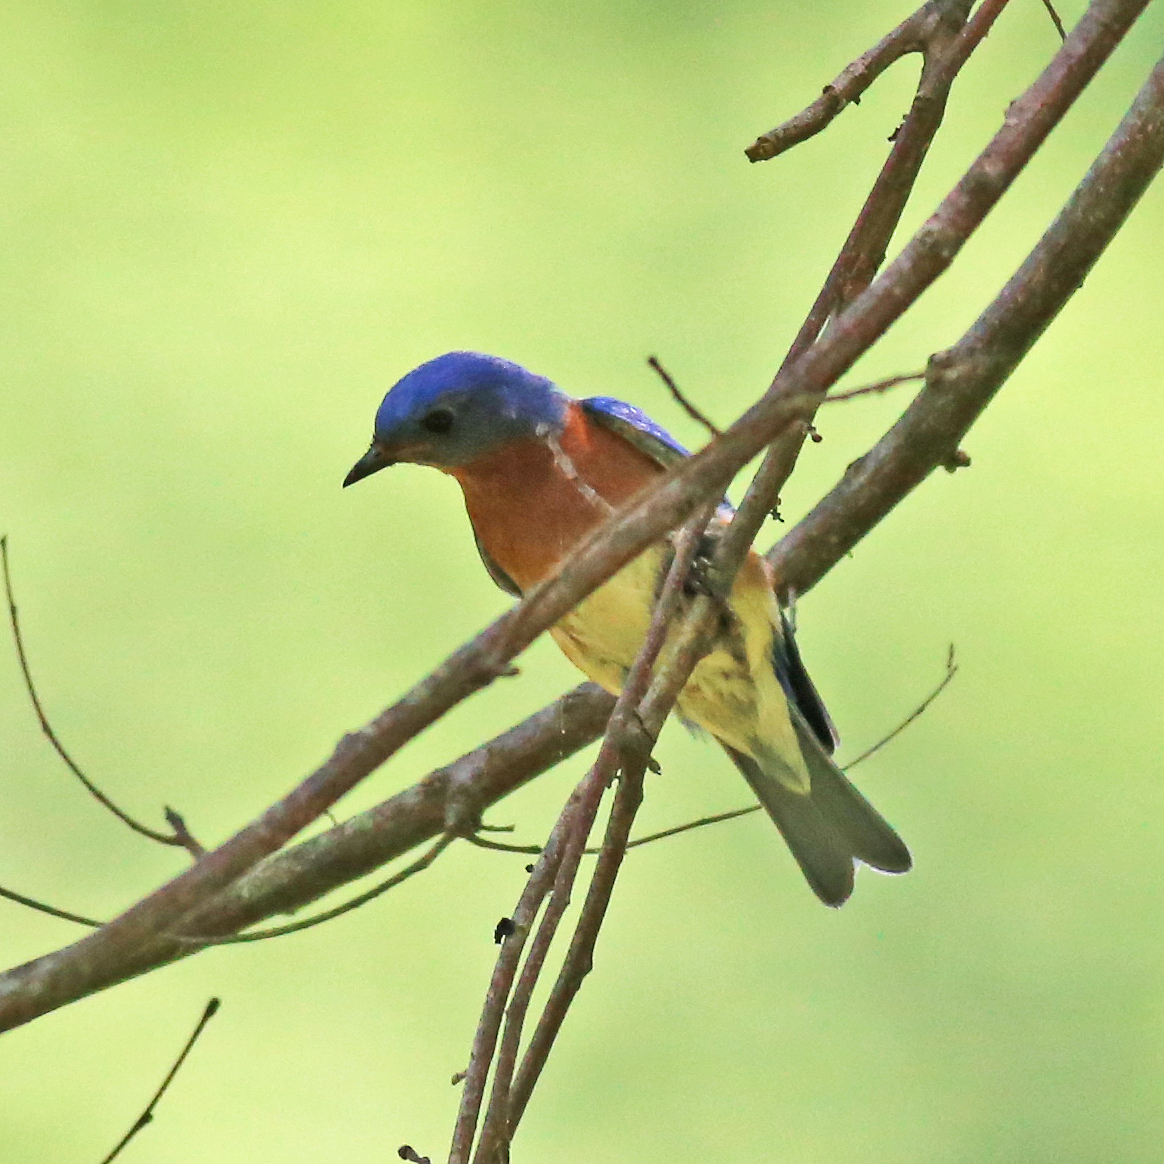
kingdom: Animalia
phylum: Chordata
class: Aves
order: Passeriformes
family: Turdidae
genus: Sialia
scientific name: Sialia sialis
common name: Eastern bluebird
